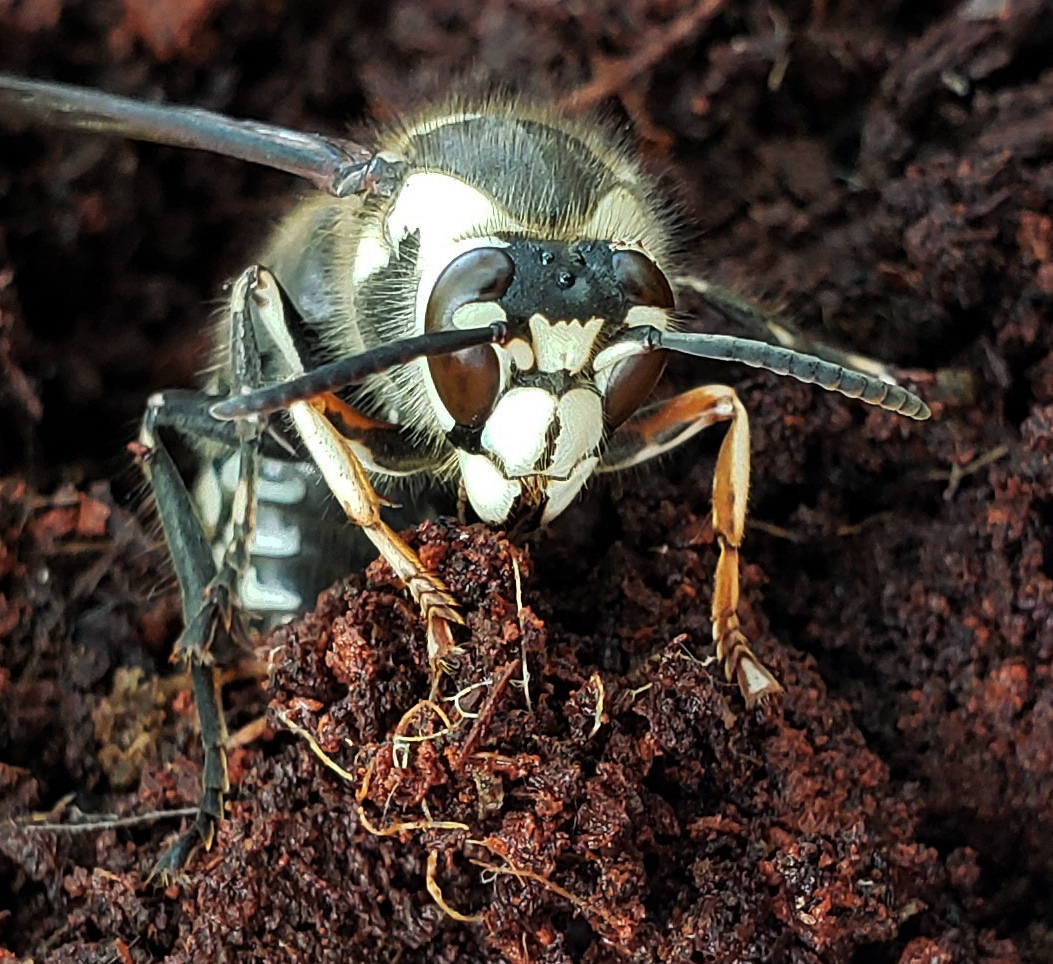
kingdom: Animalia
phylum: Arthropoda
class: Insecta
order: Hymenoptera
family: Vespidae
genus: Dolichovespula
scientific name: Dolichovespula maculata
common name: Bald-faced hornet
